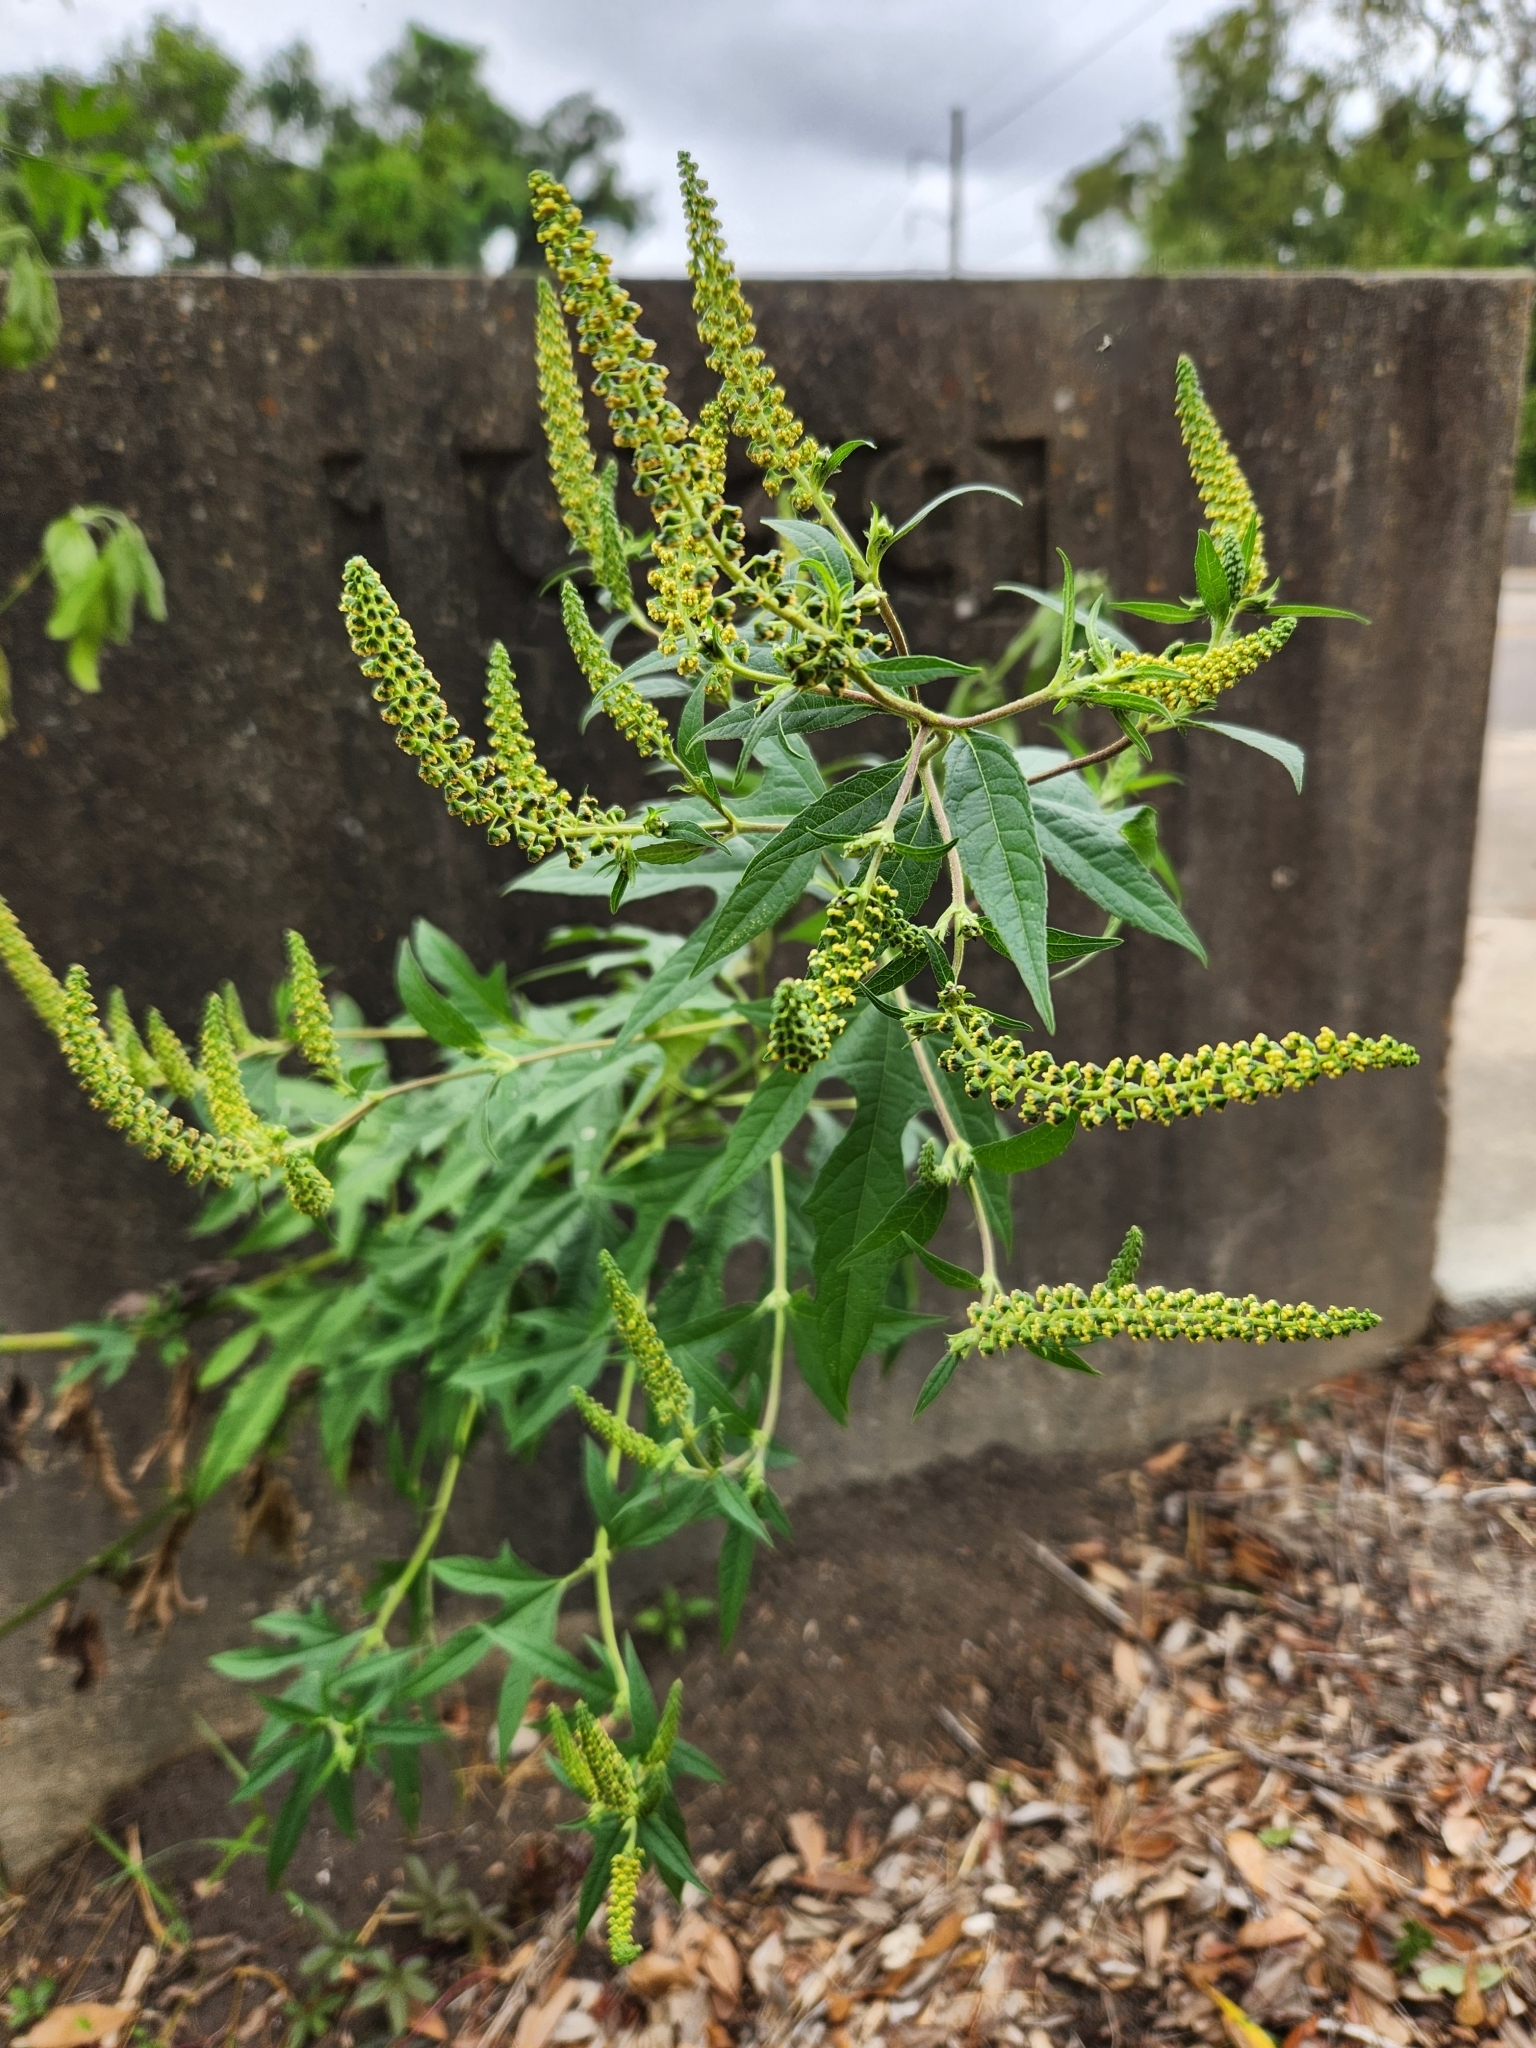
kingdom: Plantae
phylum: Tracheophyta
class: Magnoliopsida
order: Asterales
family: Asteraceae
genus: Ambrosia
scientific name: Ambrosia trifida
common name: Giant ragweed
